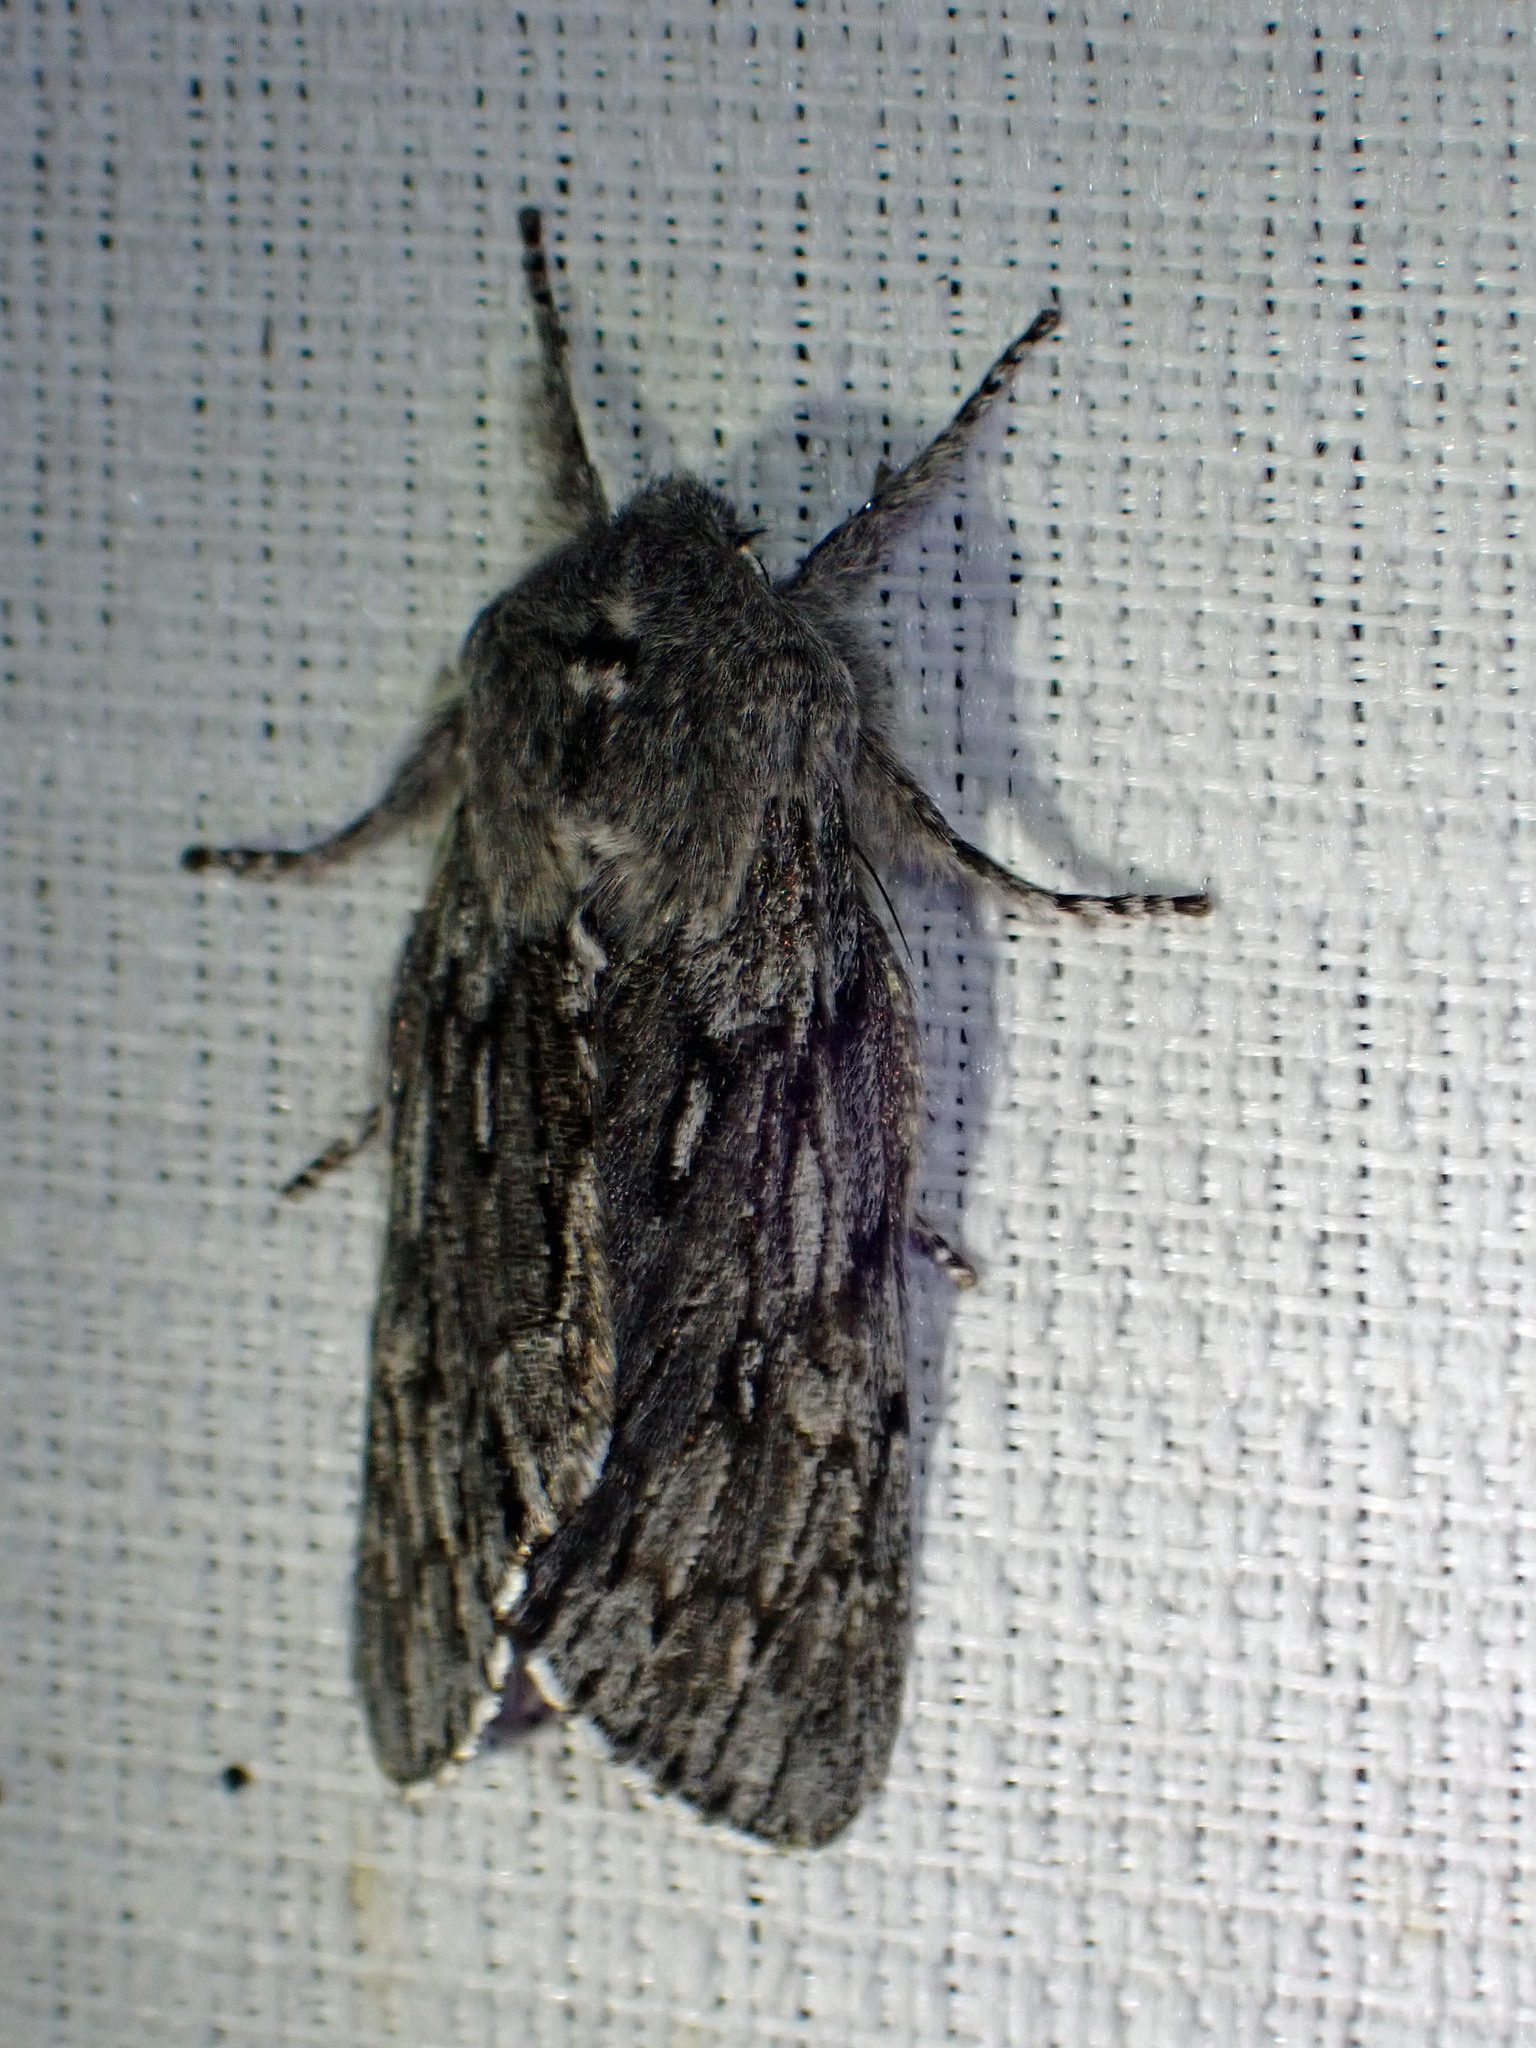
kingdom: Animalia
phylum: Arthropoda
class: Insecta
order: Lepidoptera
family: Noctuidae
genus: Brachionycha
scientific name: Brachionycha borealis
